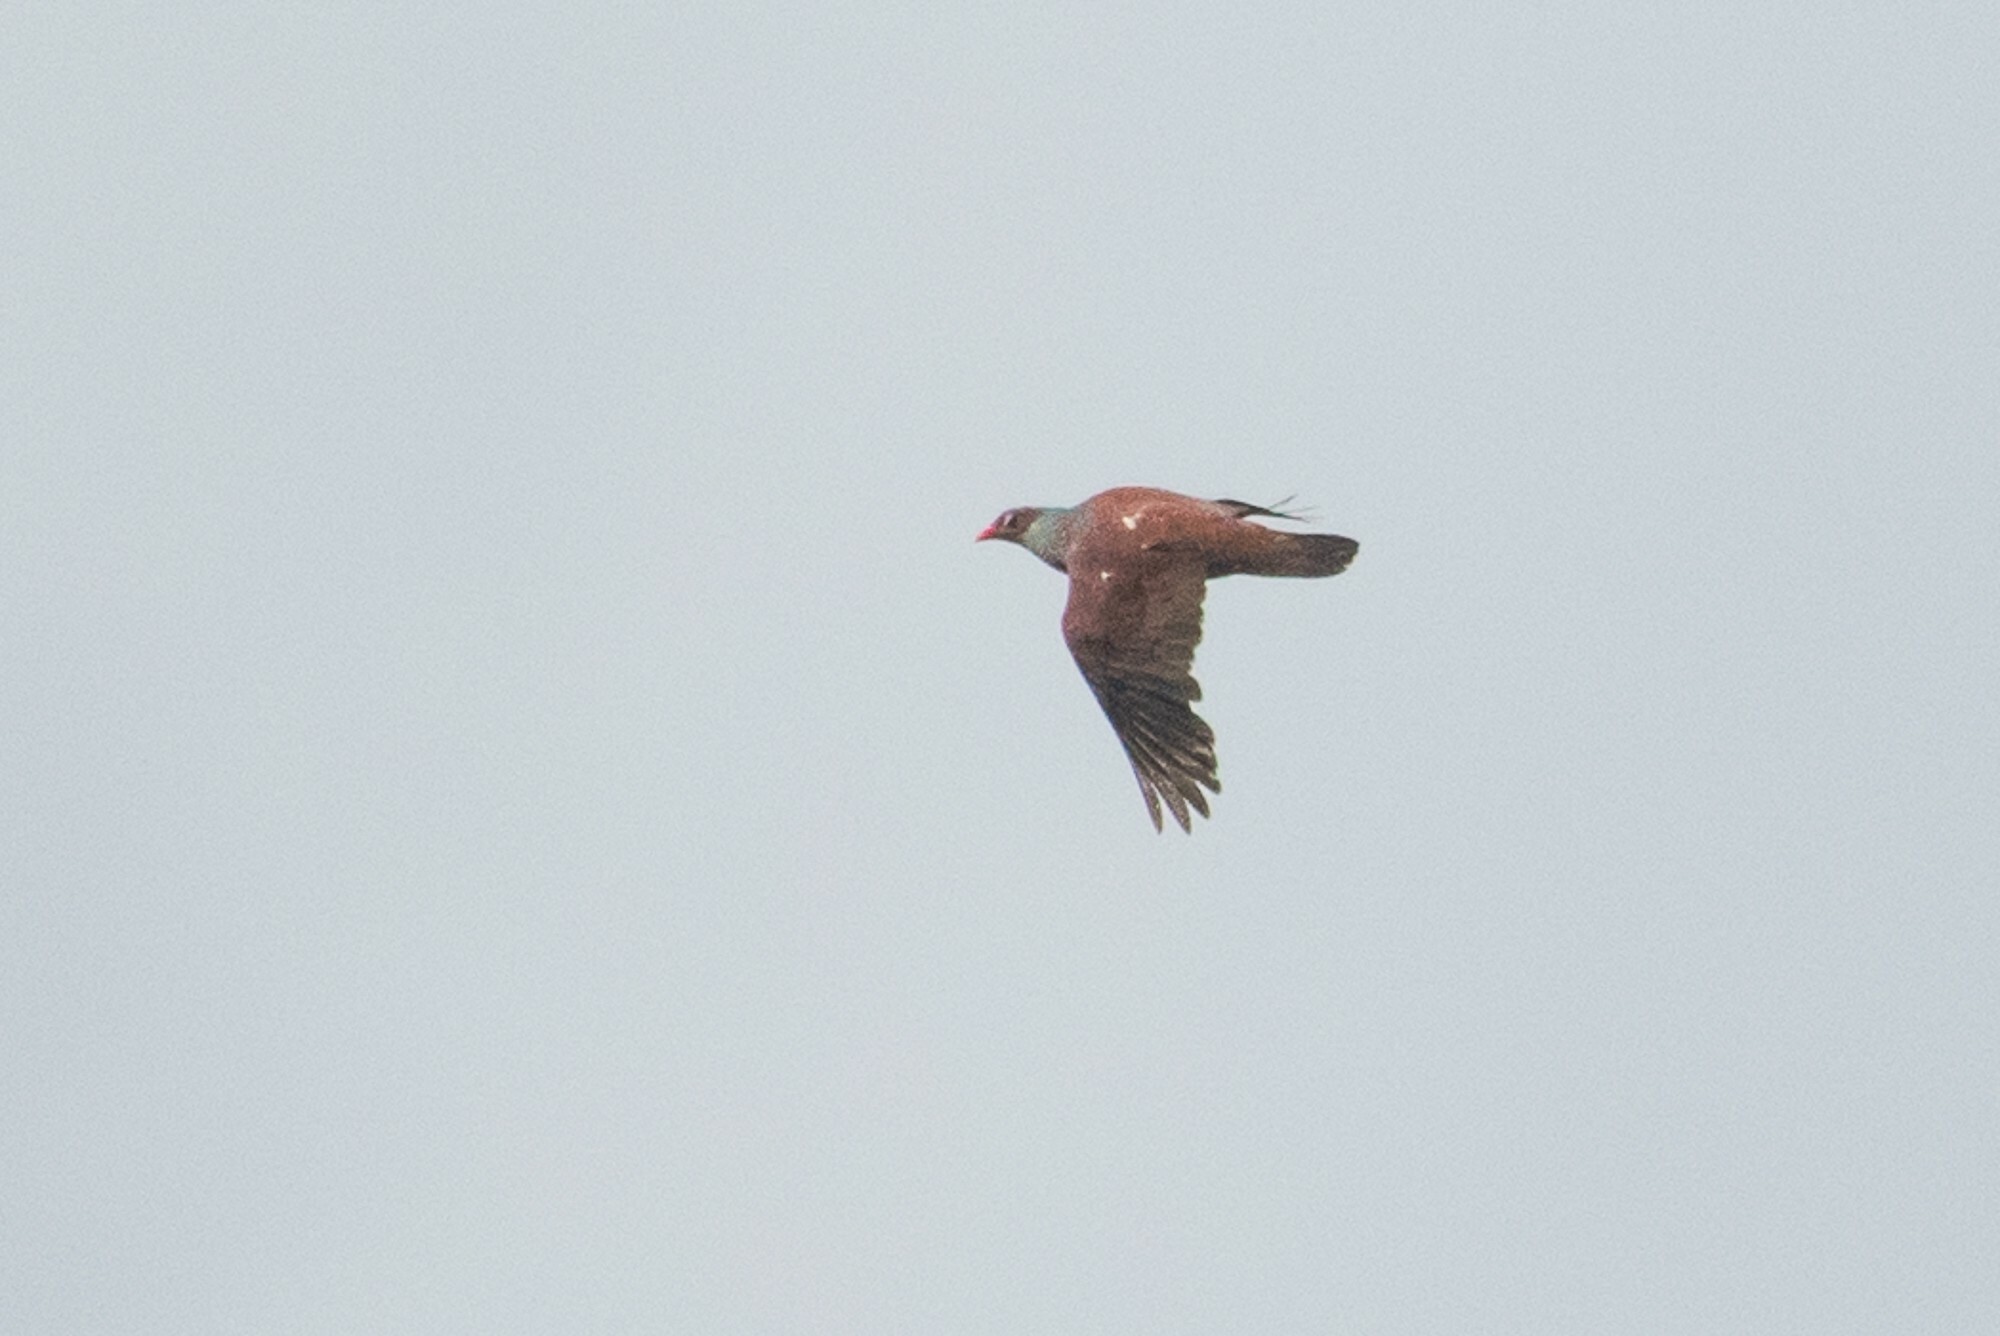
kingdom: Animalia
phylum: Chordata
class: Aves
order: Columbiformes
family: Columbidae
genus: Patagioenas
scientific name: Patagioenas speciosa
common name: Scaled pigeon
